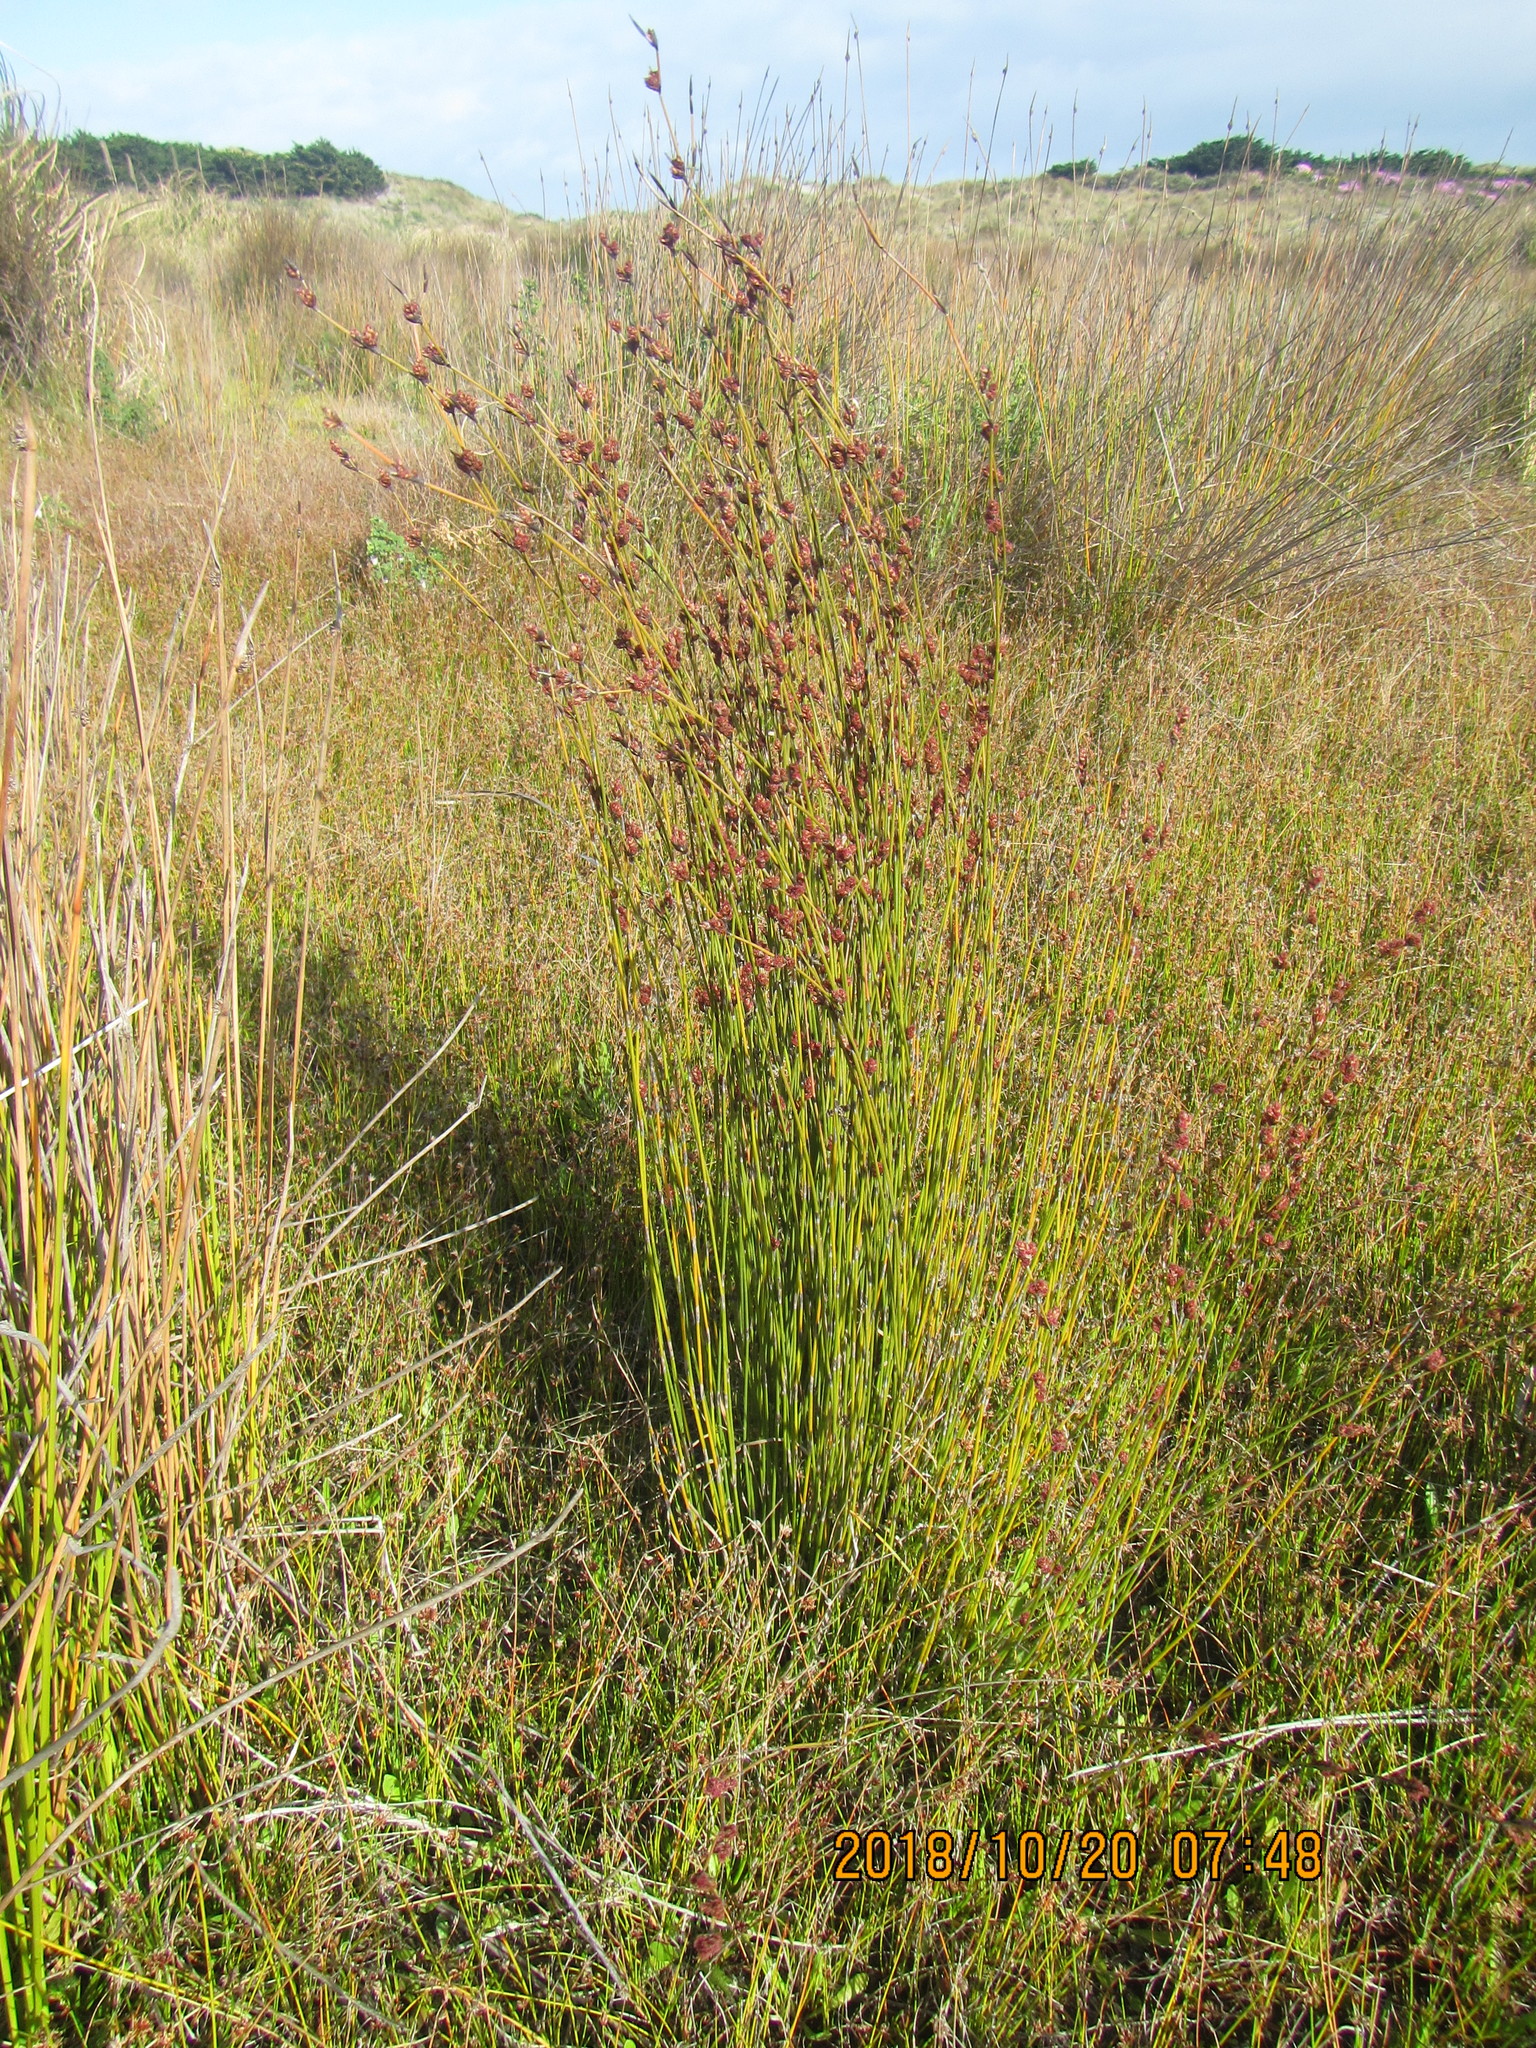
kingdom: Plantae
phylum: Tracheophyta
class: Liliopsida
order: Poales
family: Restionaceae
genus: Apodasmia
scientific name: Apodasmia similis
